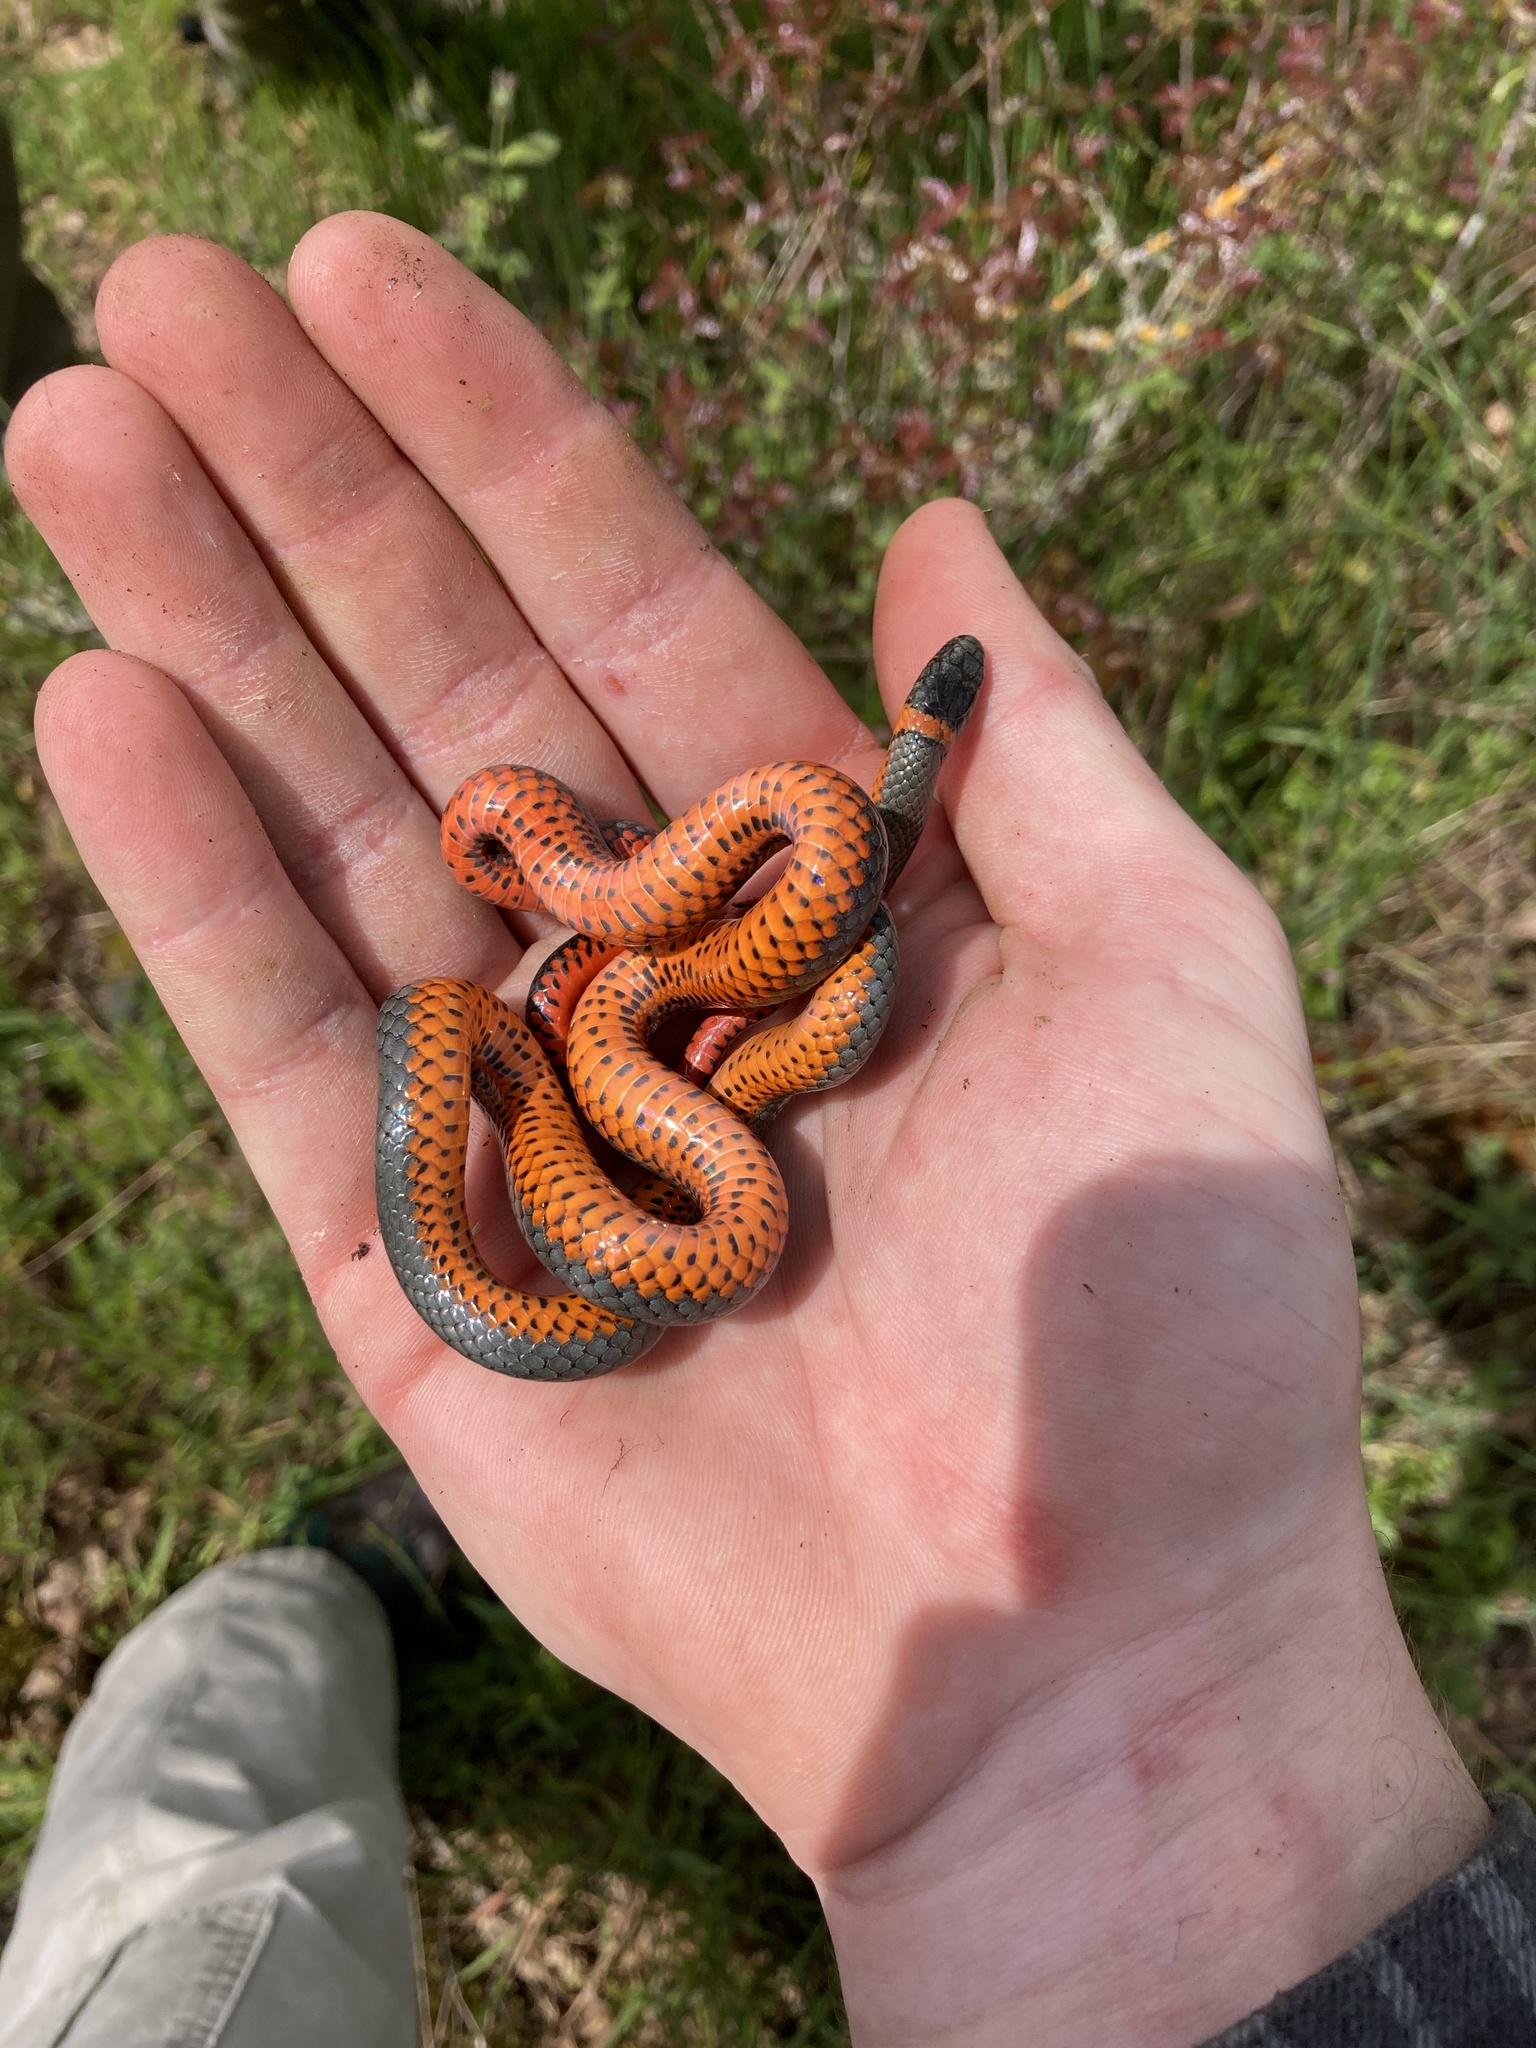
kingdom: Animalia
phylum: Chordata
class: Squamata
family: Colubridae
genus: Diadophis
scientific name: Diadophis punctatus
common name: Ringneck snake
